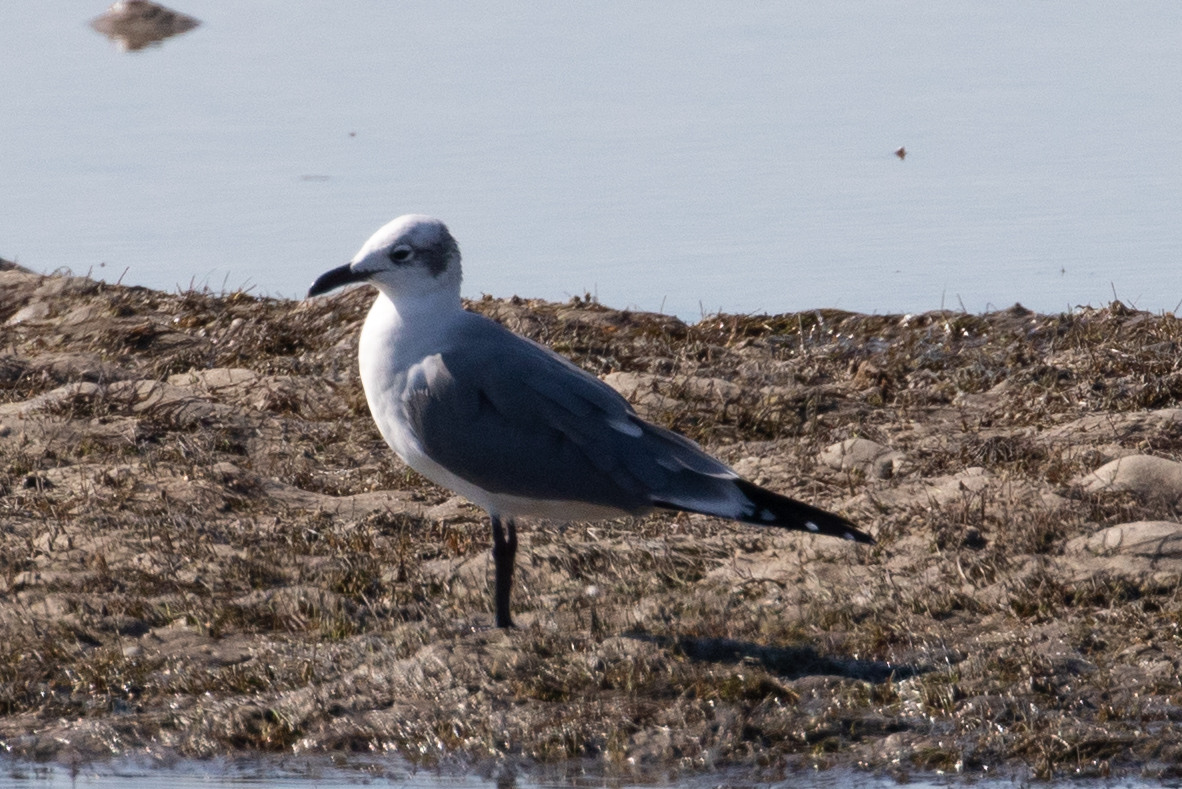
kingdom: Animalia
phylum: Chordata
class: Aves
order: Charadriiformes
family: Laridae
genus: Leucophaeus
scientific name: Leucophaeus atricilla
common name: Laughing gull
